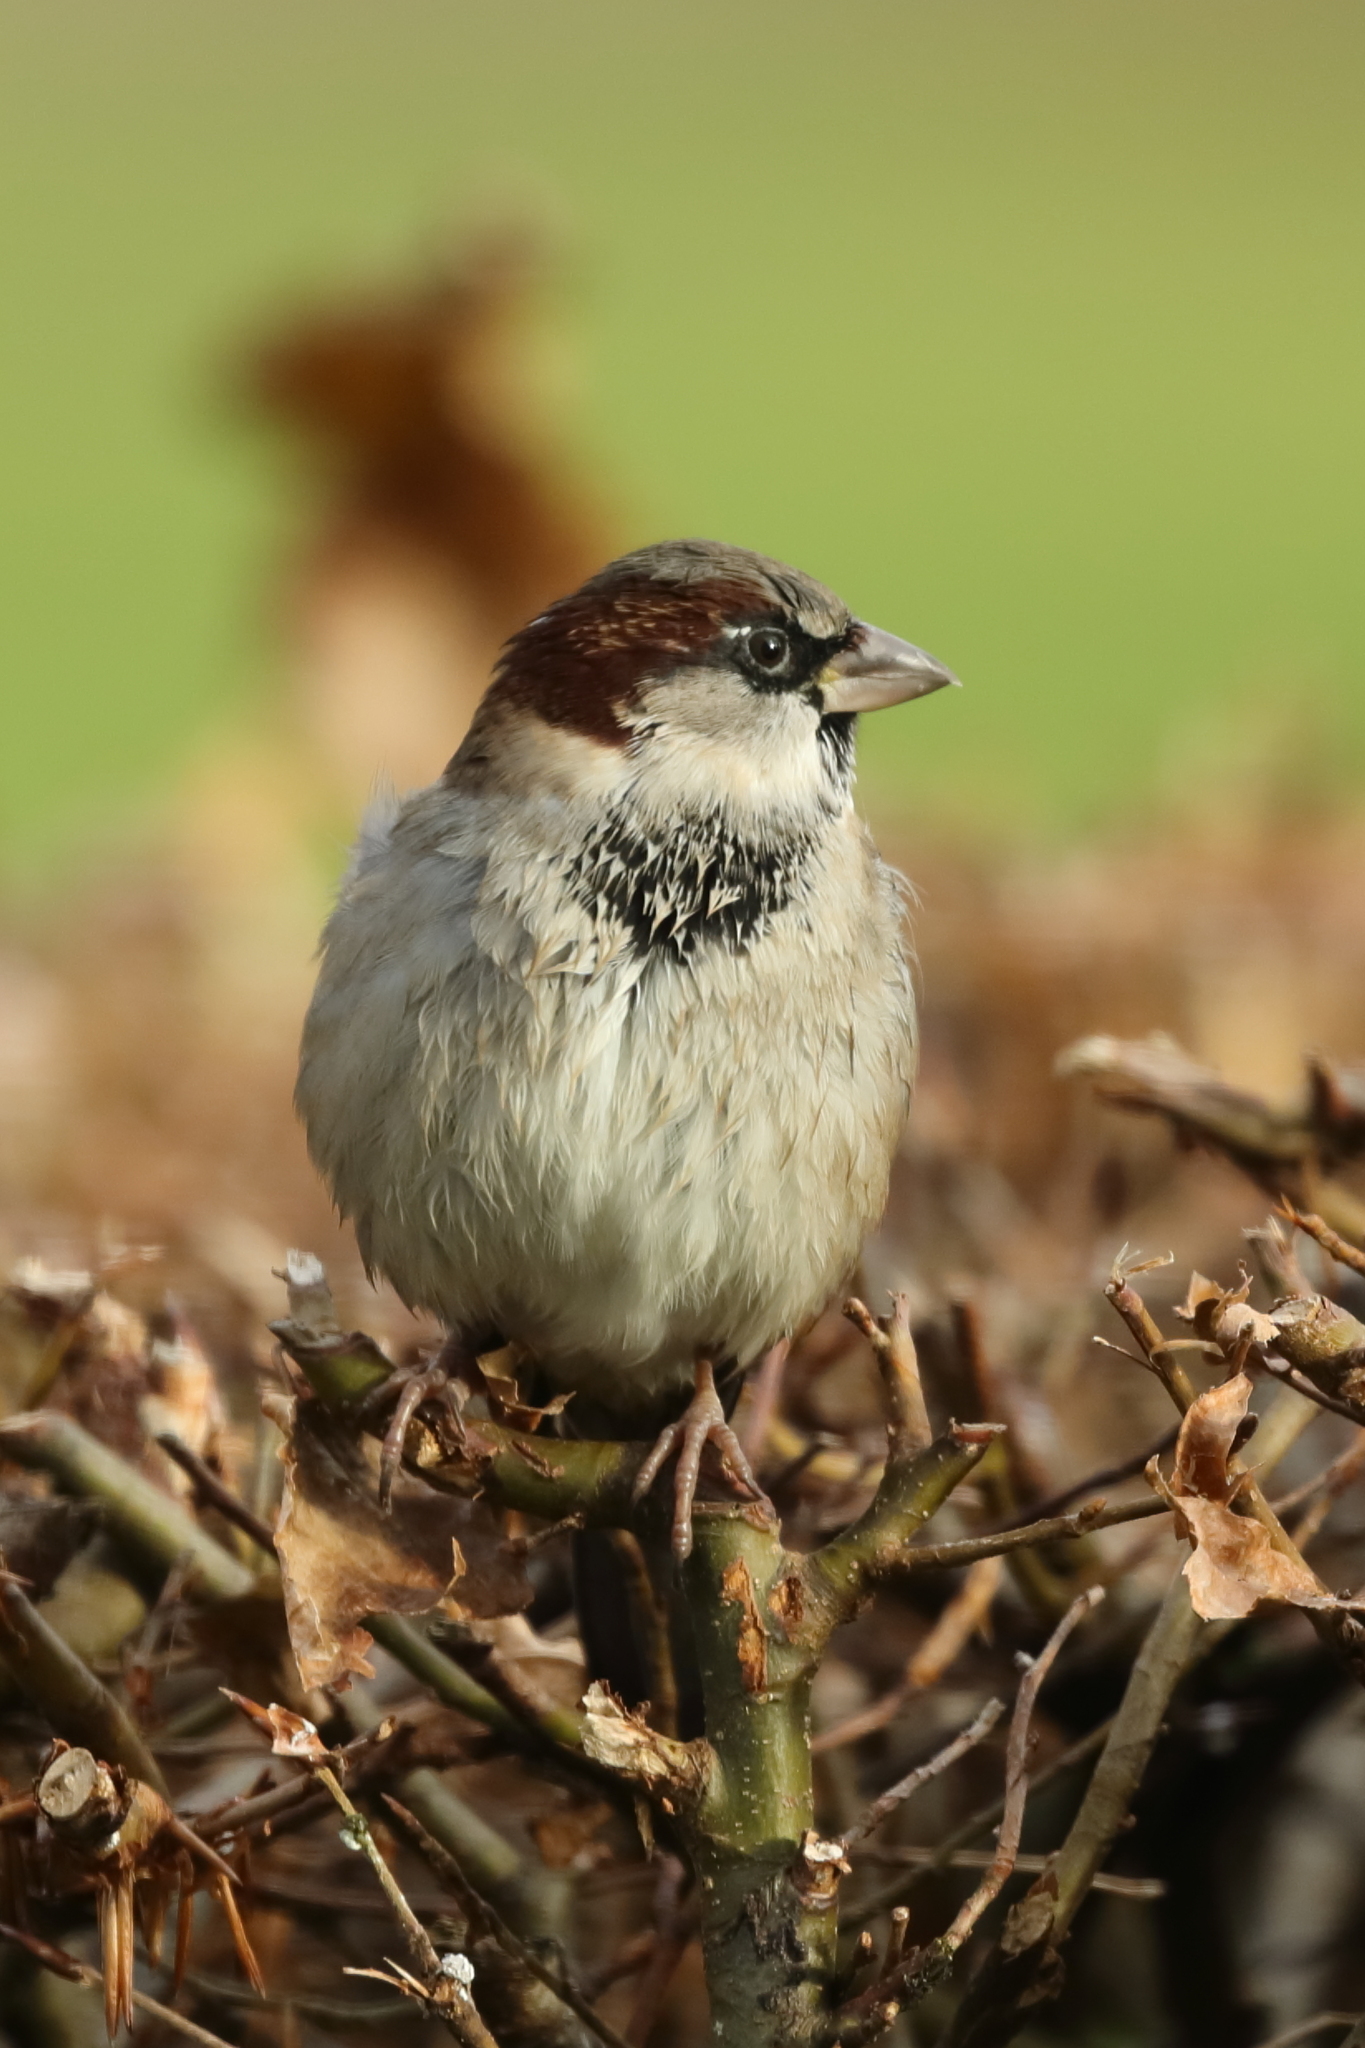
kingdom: Animalia
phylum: Chordata
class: Aves
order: Passeriformes
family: Passeridae
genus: Passer
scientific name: Passer domesticus
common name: House sparrow
